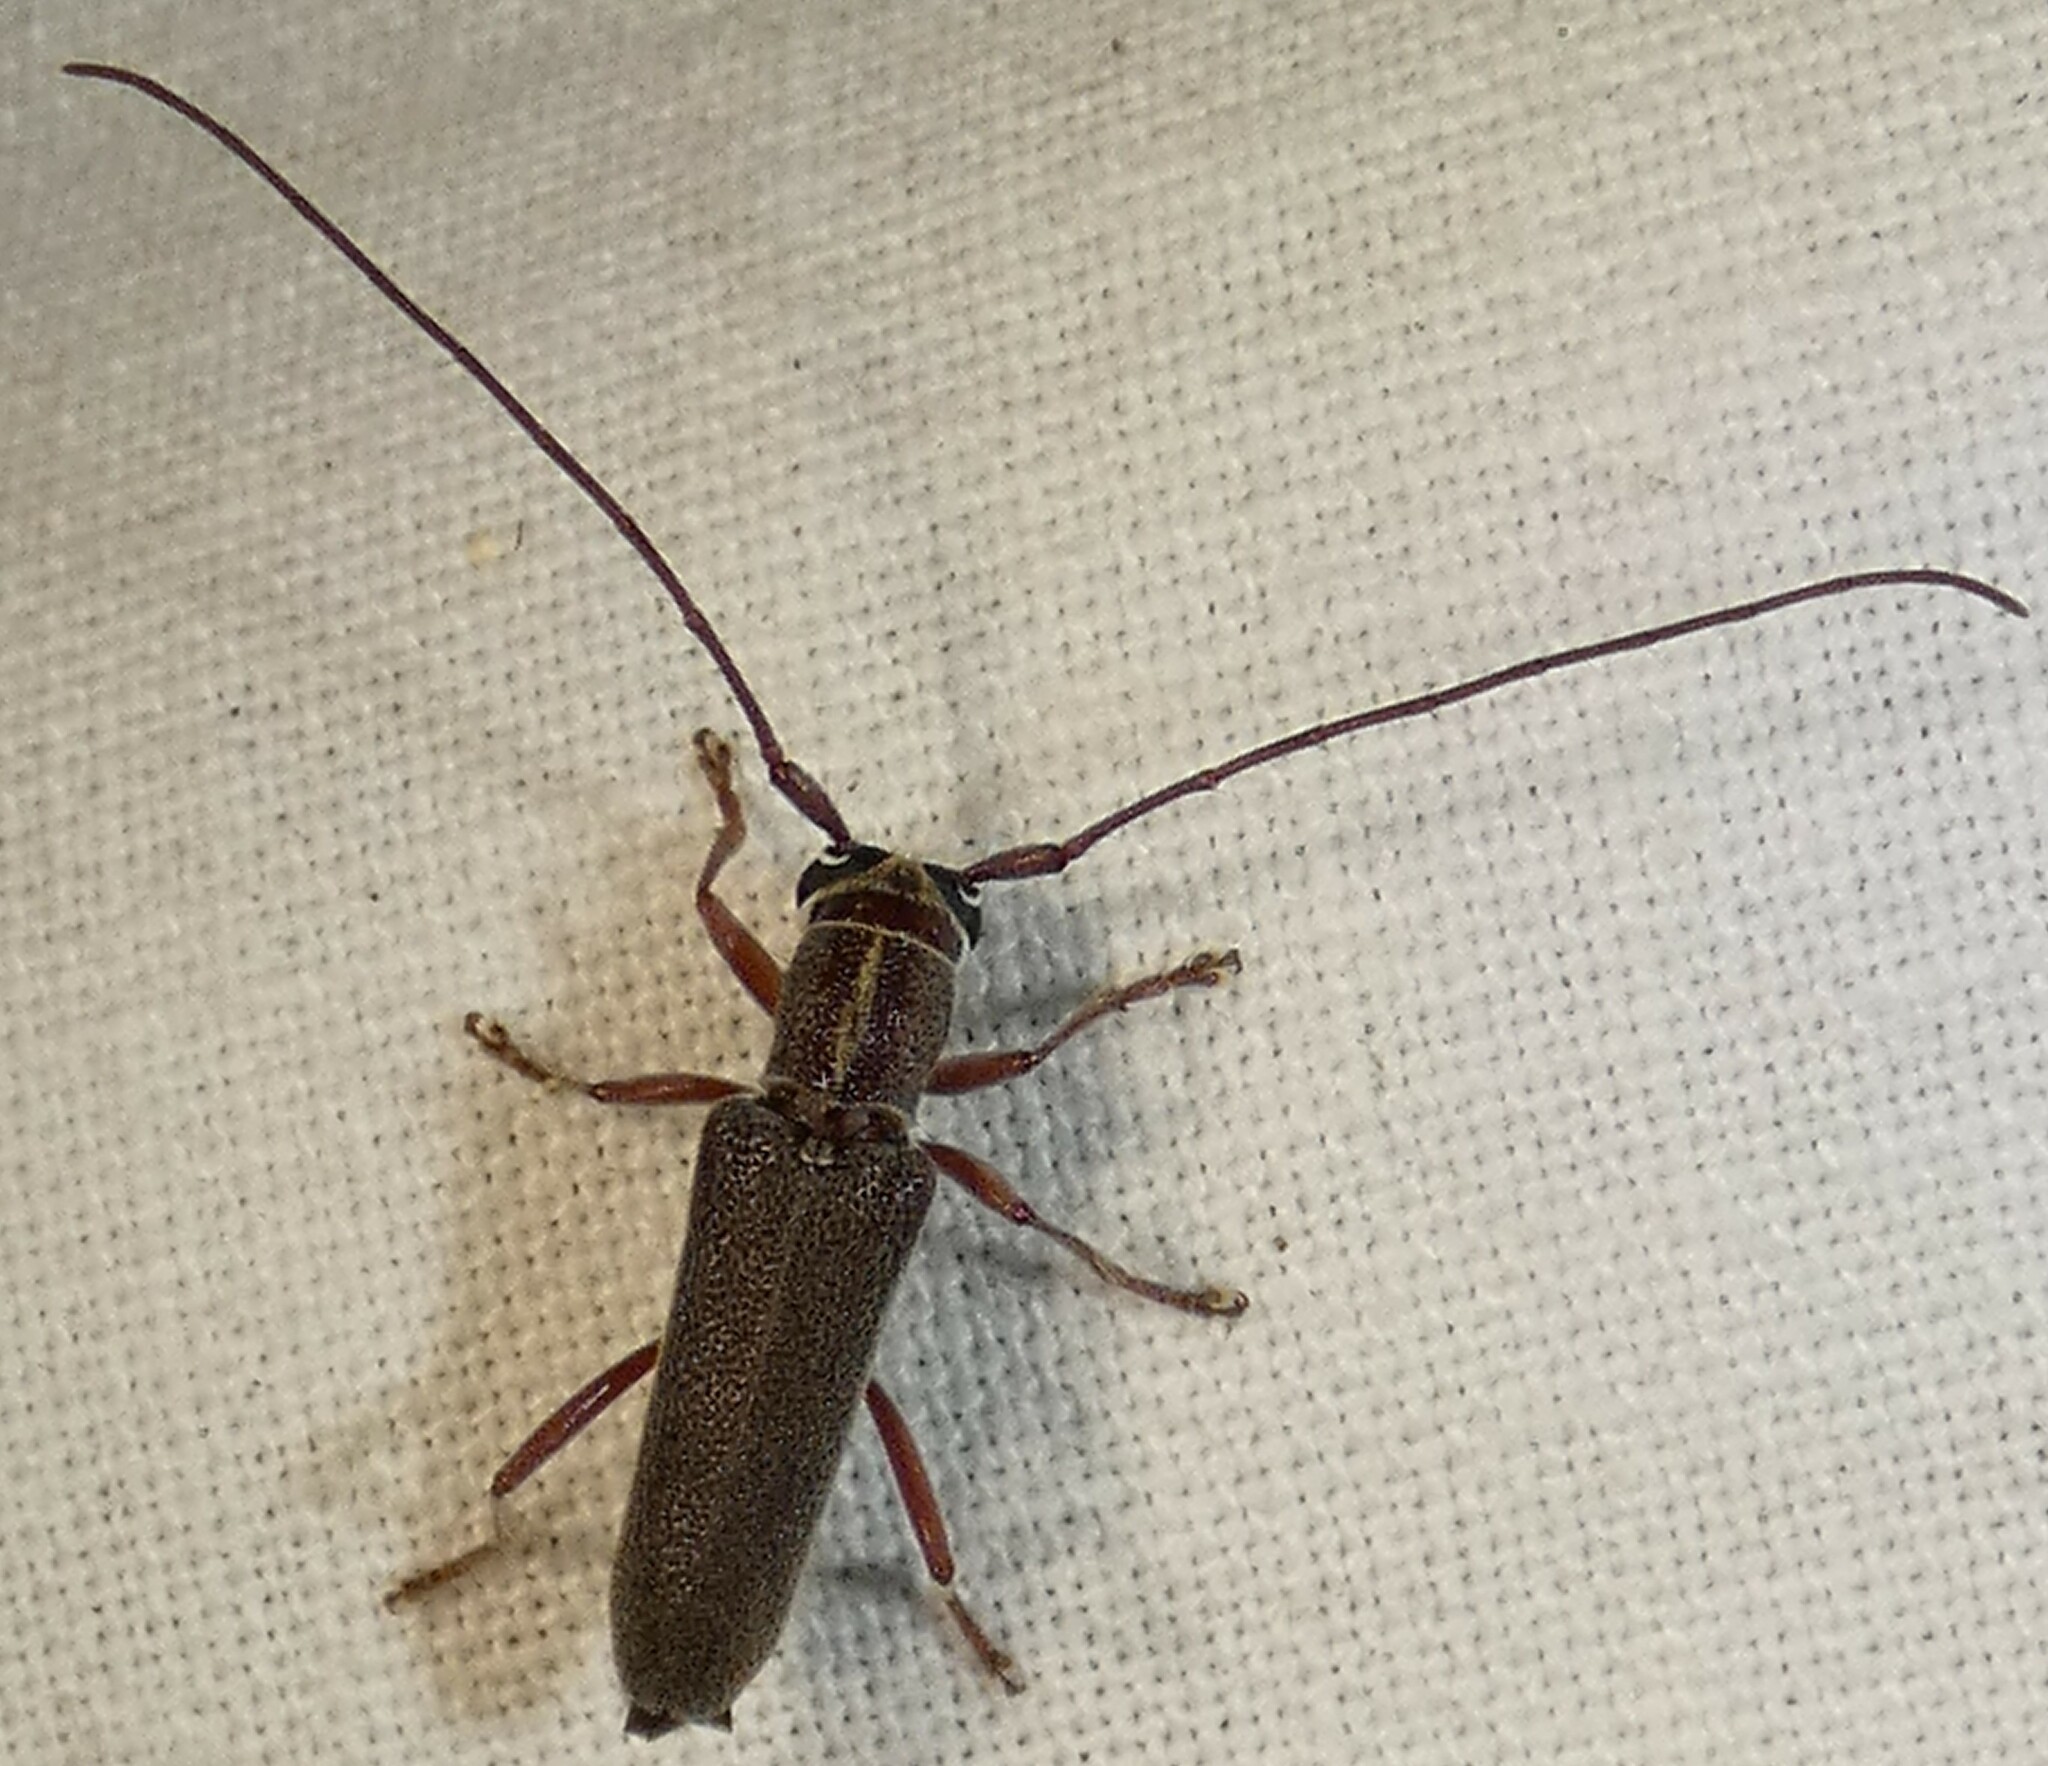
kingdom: Animalia
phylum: Arthropoda
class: Insecta
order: Coleoptera
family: Cerambycidae
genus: Saperda
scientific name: Saperda discoidea
